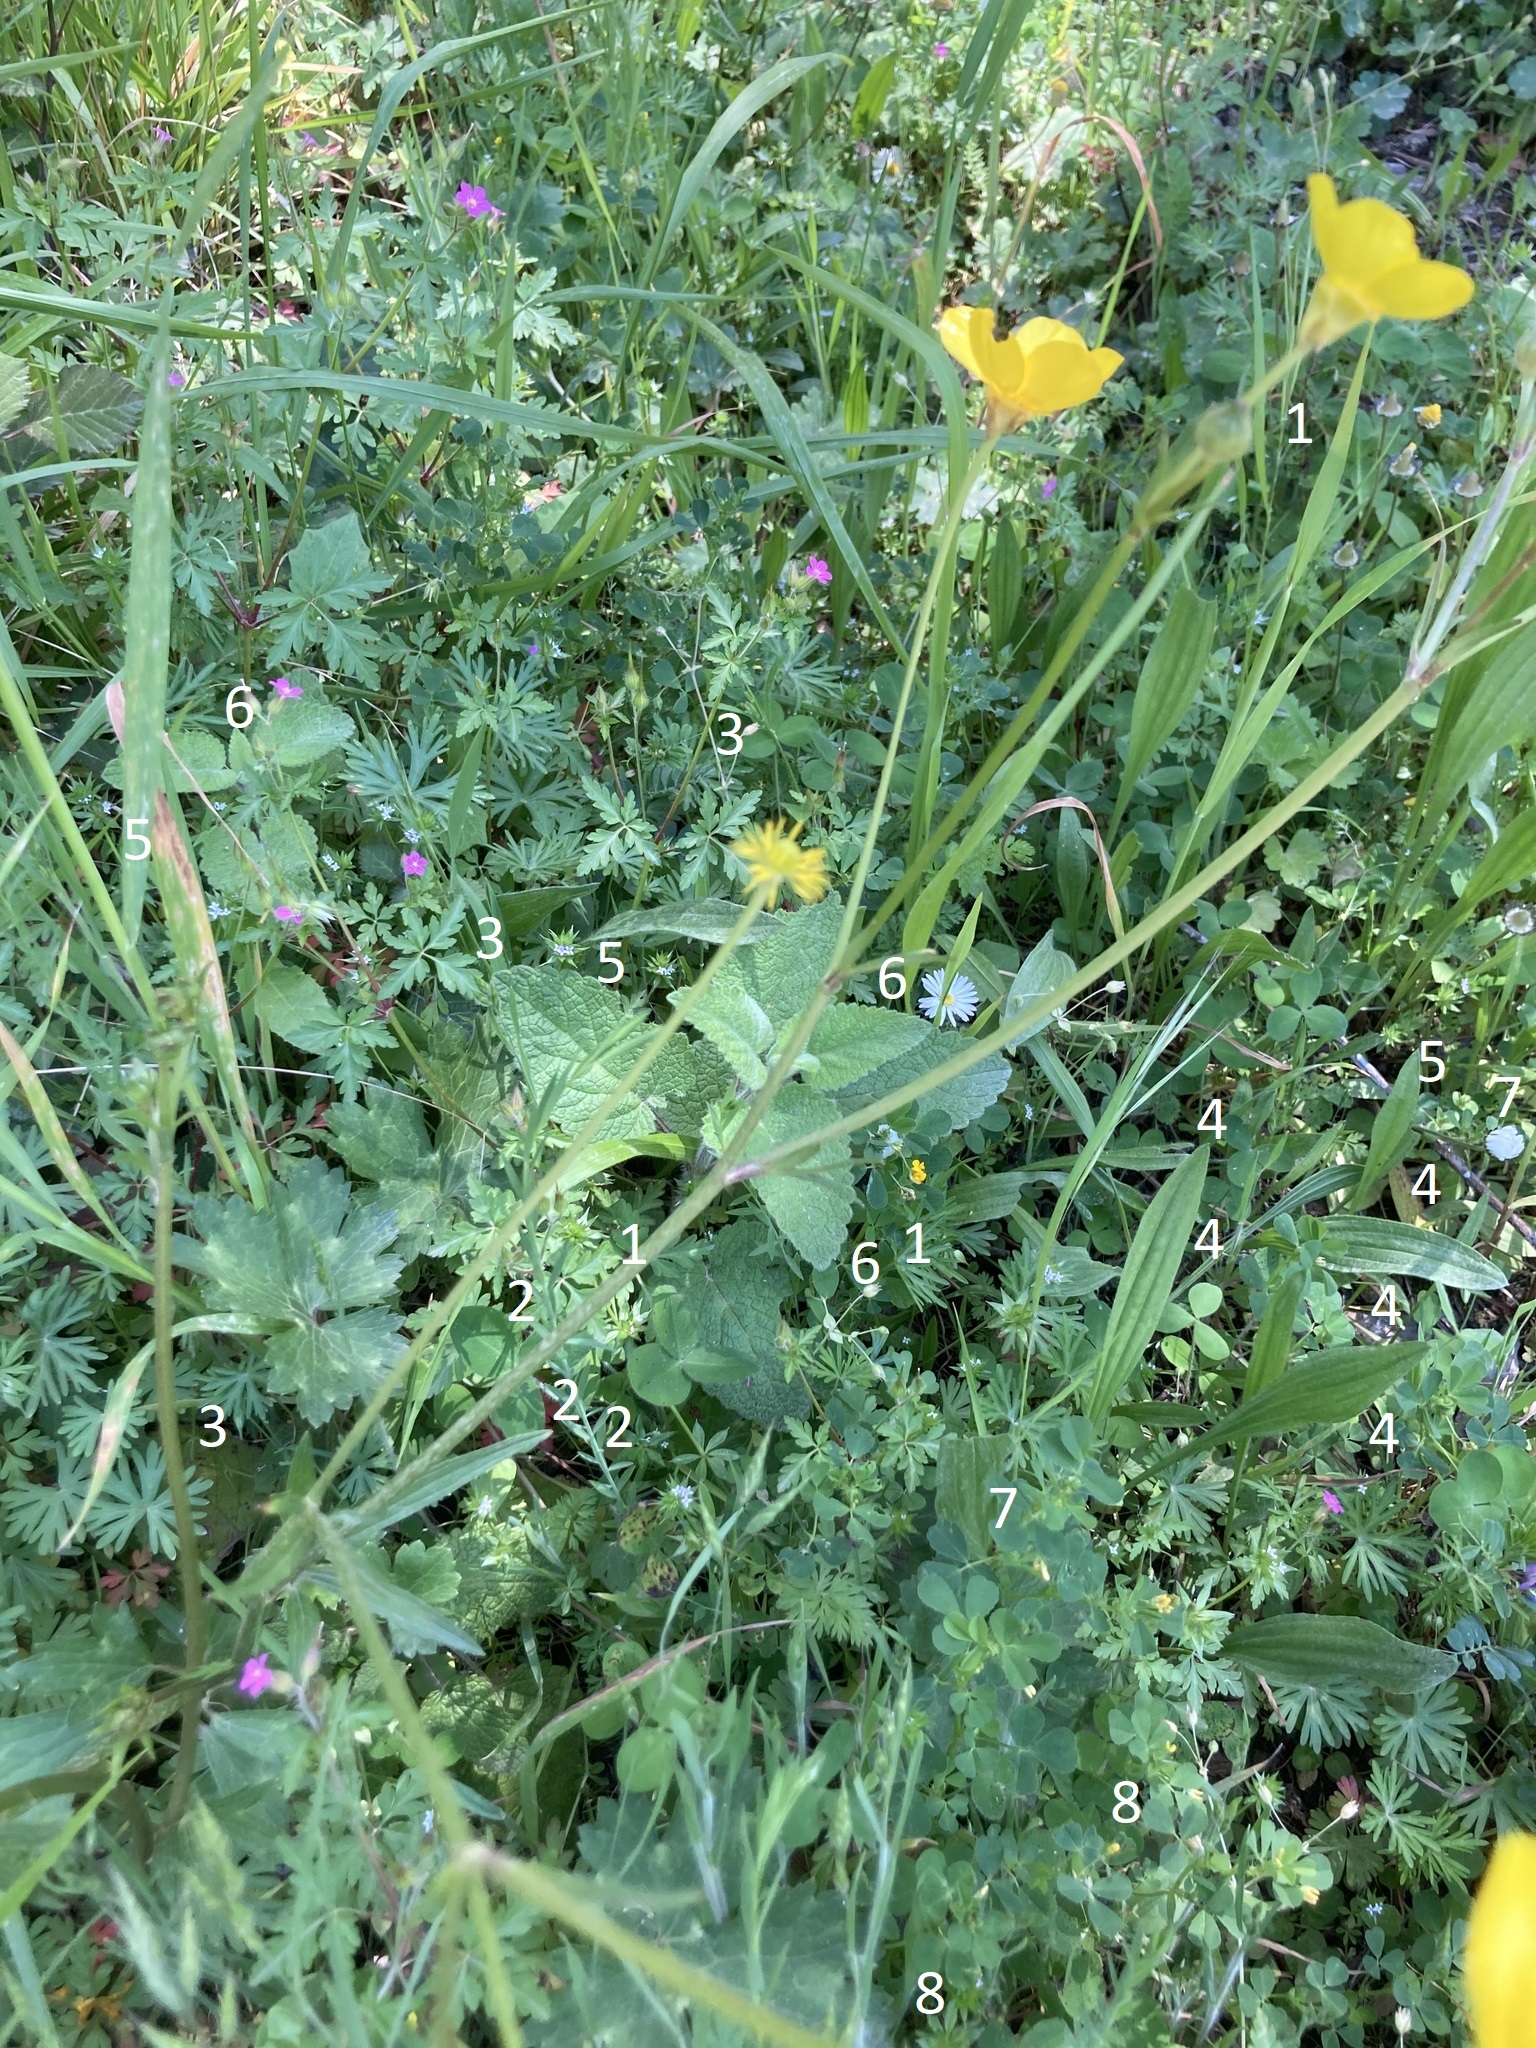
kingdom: Plantae
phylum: Tracheophyta
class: Magnoliopsida
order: Gentianales
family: Rubiaceae
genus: Sherardia
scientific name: Sherardia arvensis
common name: Field madder
